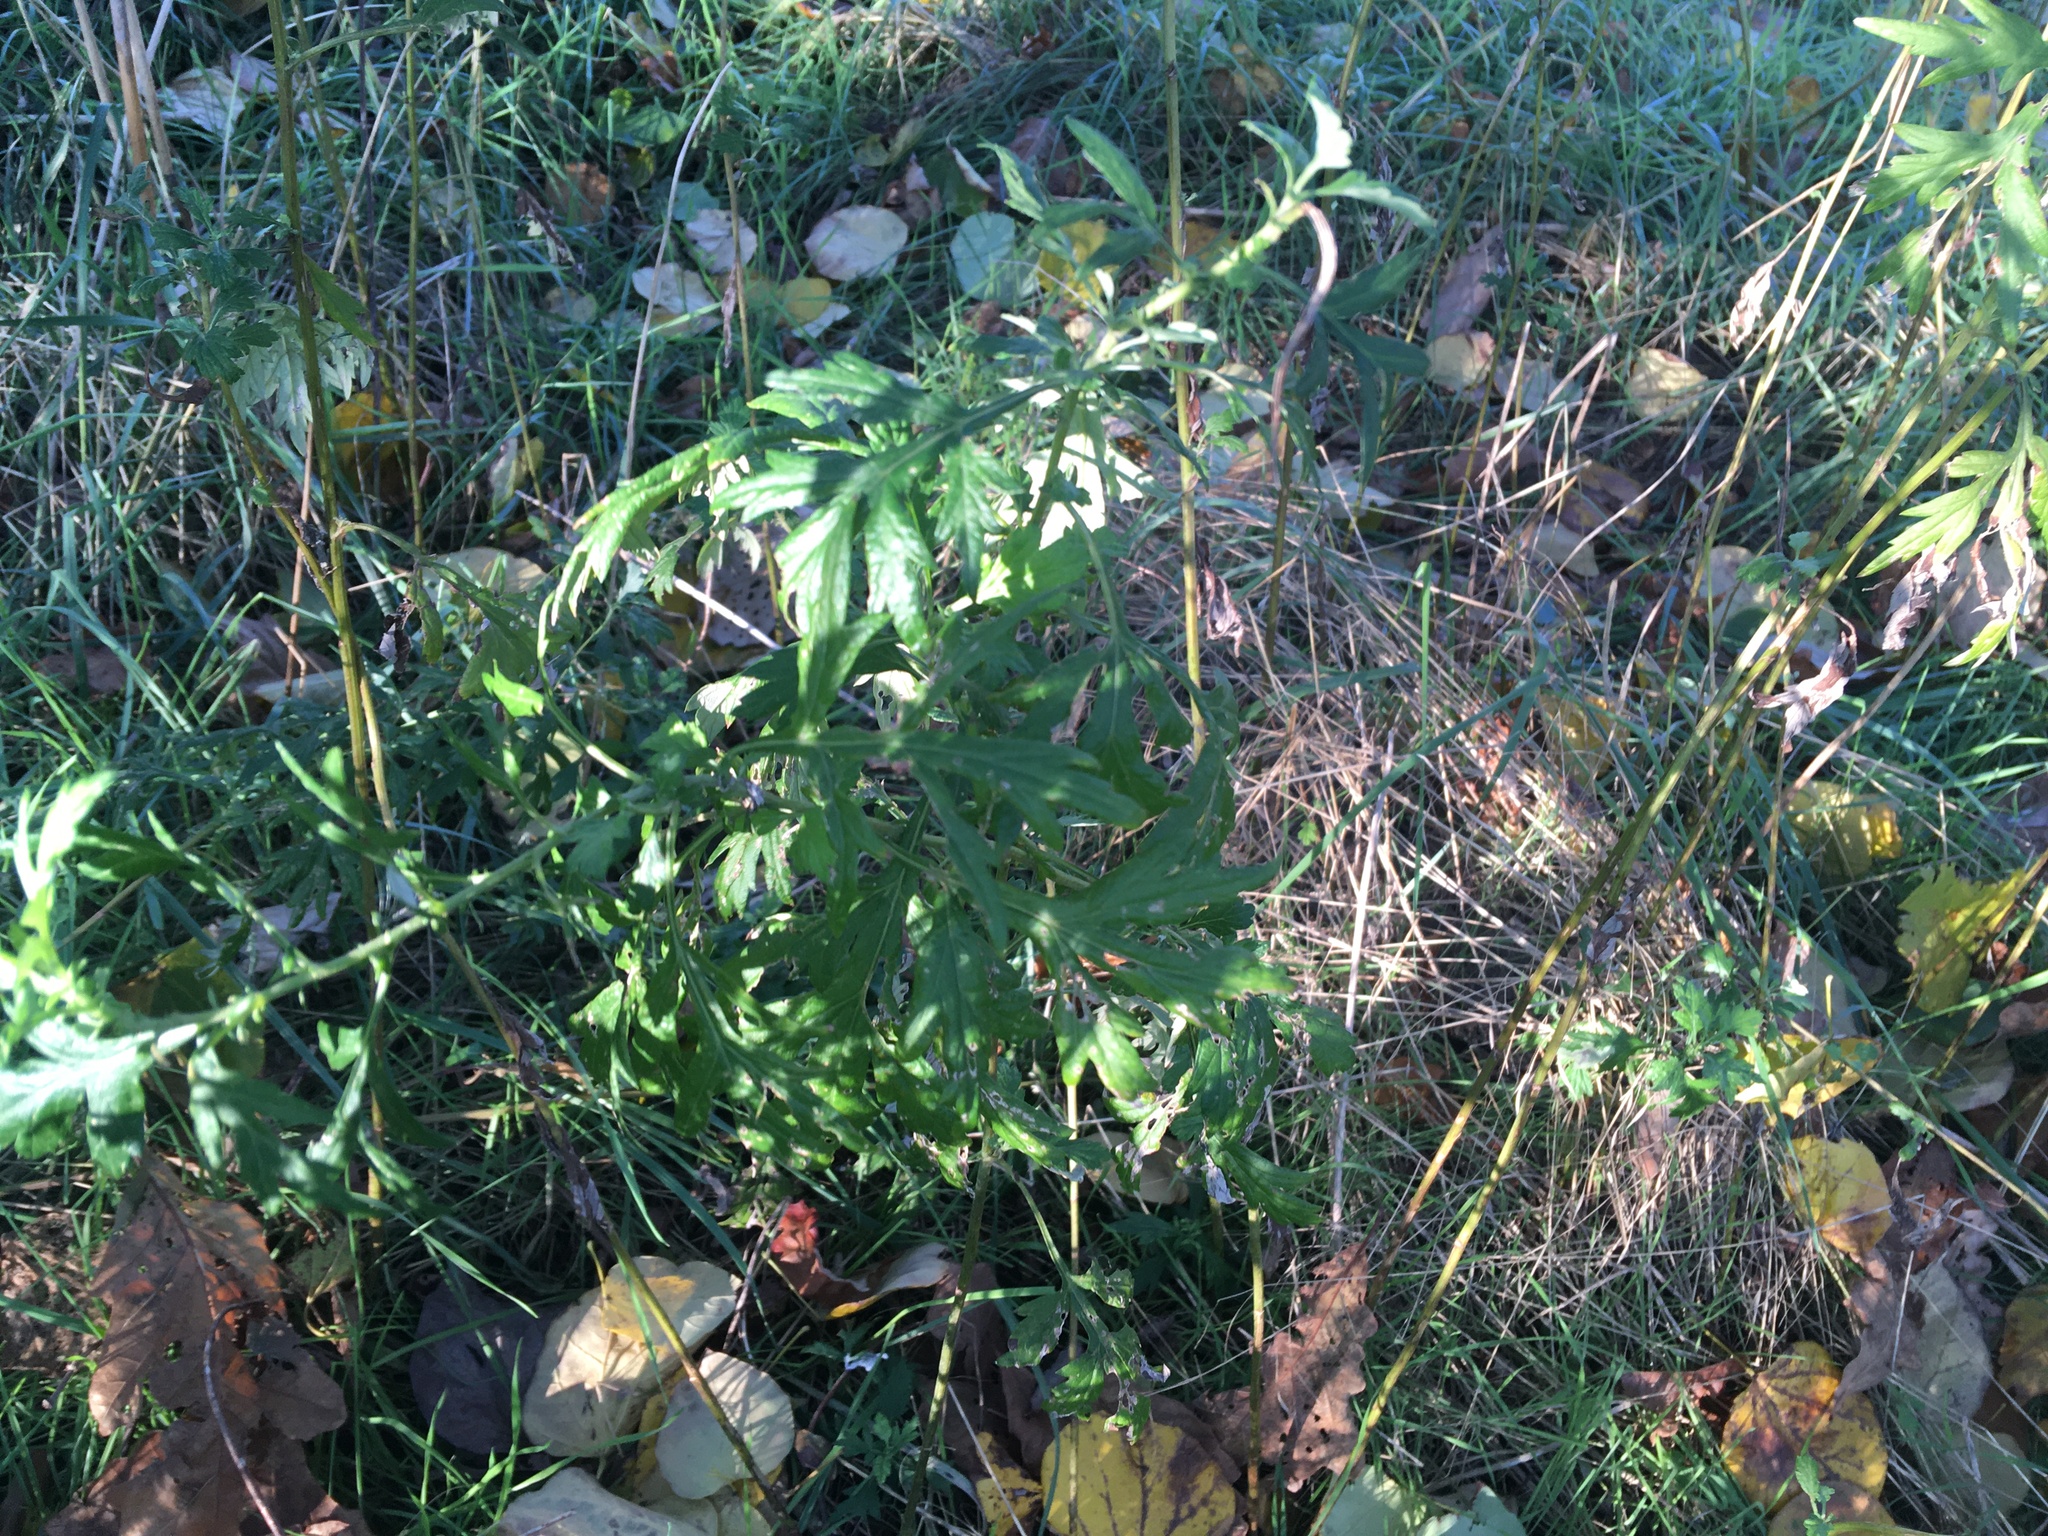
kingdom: Plantae
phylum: Tracheophyta
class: Magnoliopsida
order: Asterales
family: Asteraceae
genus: Artemisia
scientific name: Artemisia vulgaris
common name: Mugwort
